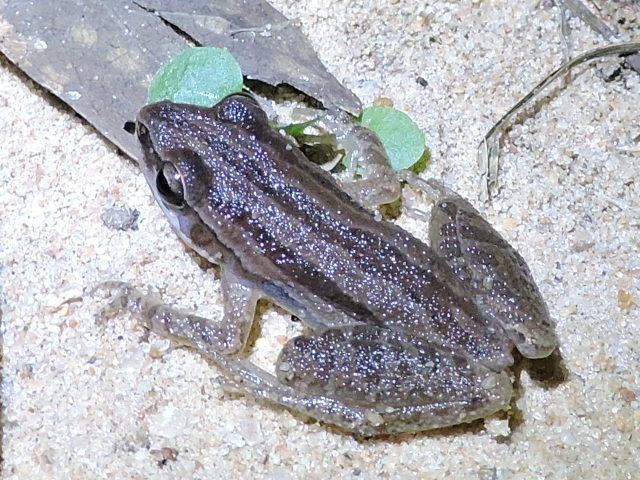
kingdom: Animalia
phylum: Chordata
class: Amphibia
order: Anura
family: Hylidae
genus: Pseudacris
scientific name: Pseudacris fouquettei
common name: Cajun chorus frog
